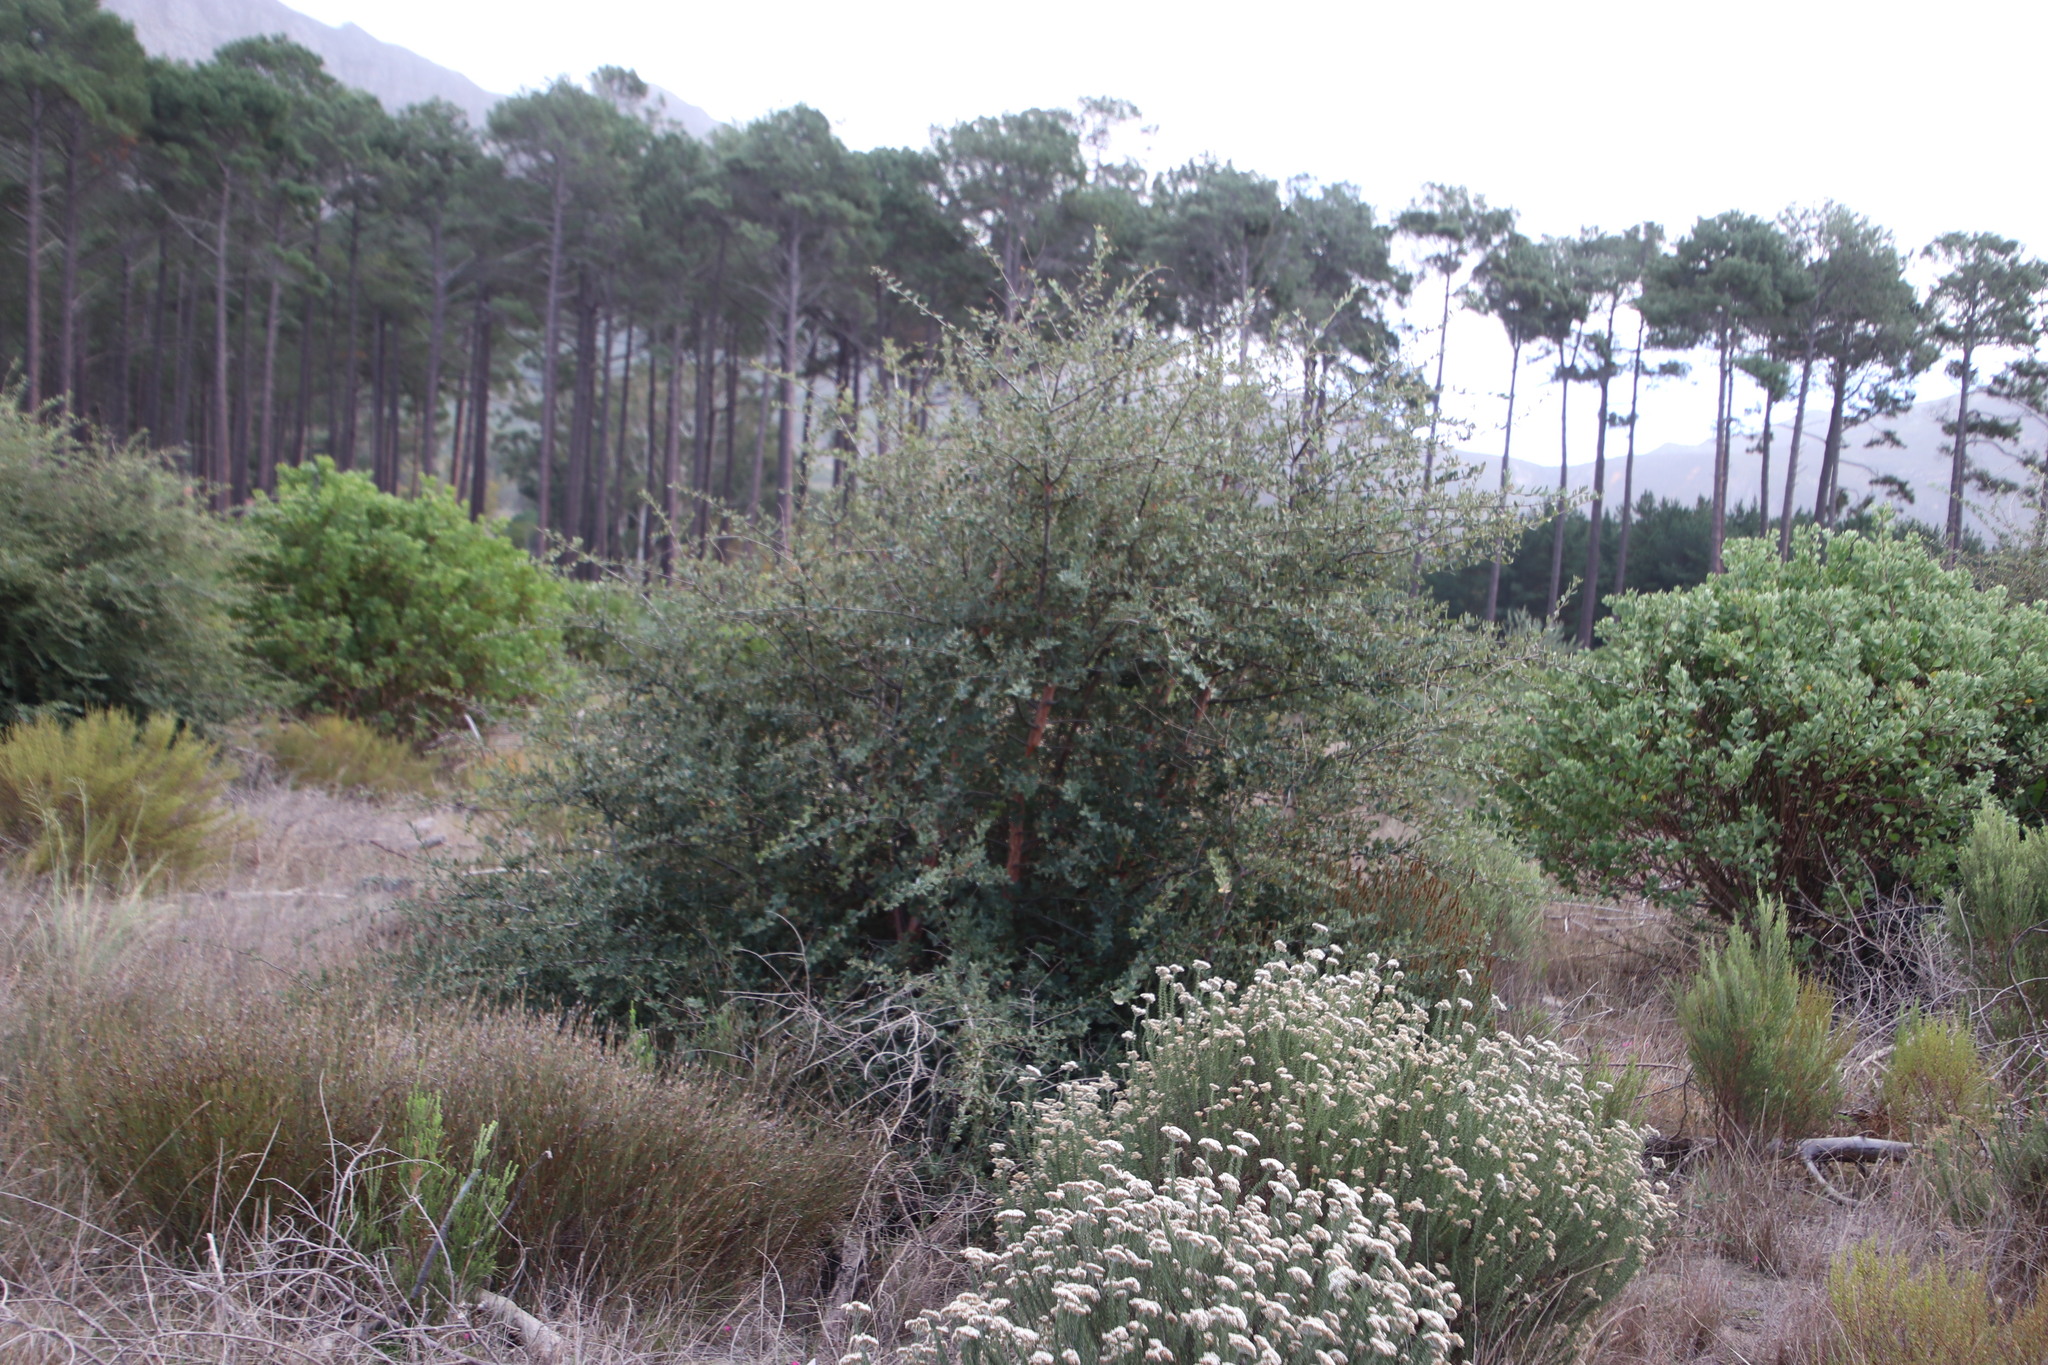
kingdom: Plantae
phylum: Tracheophyta
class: Magnoliopsida
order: Fagales
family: Fagaceae
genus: Quercus
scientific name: Quercus suber
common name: Cork oak
